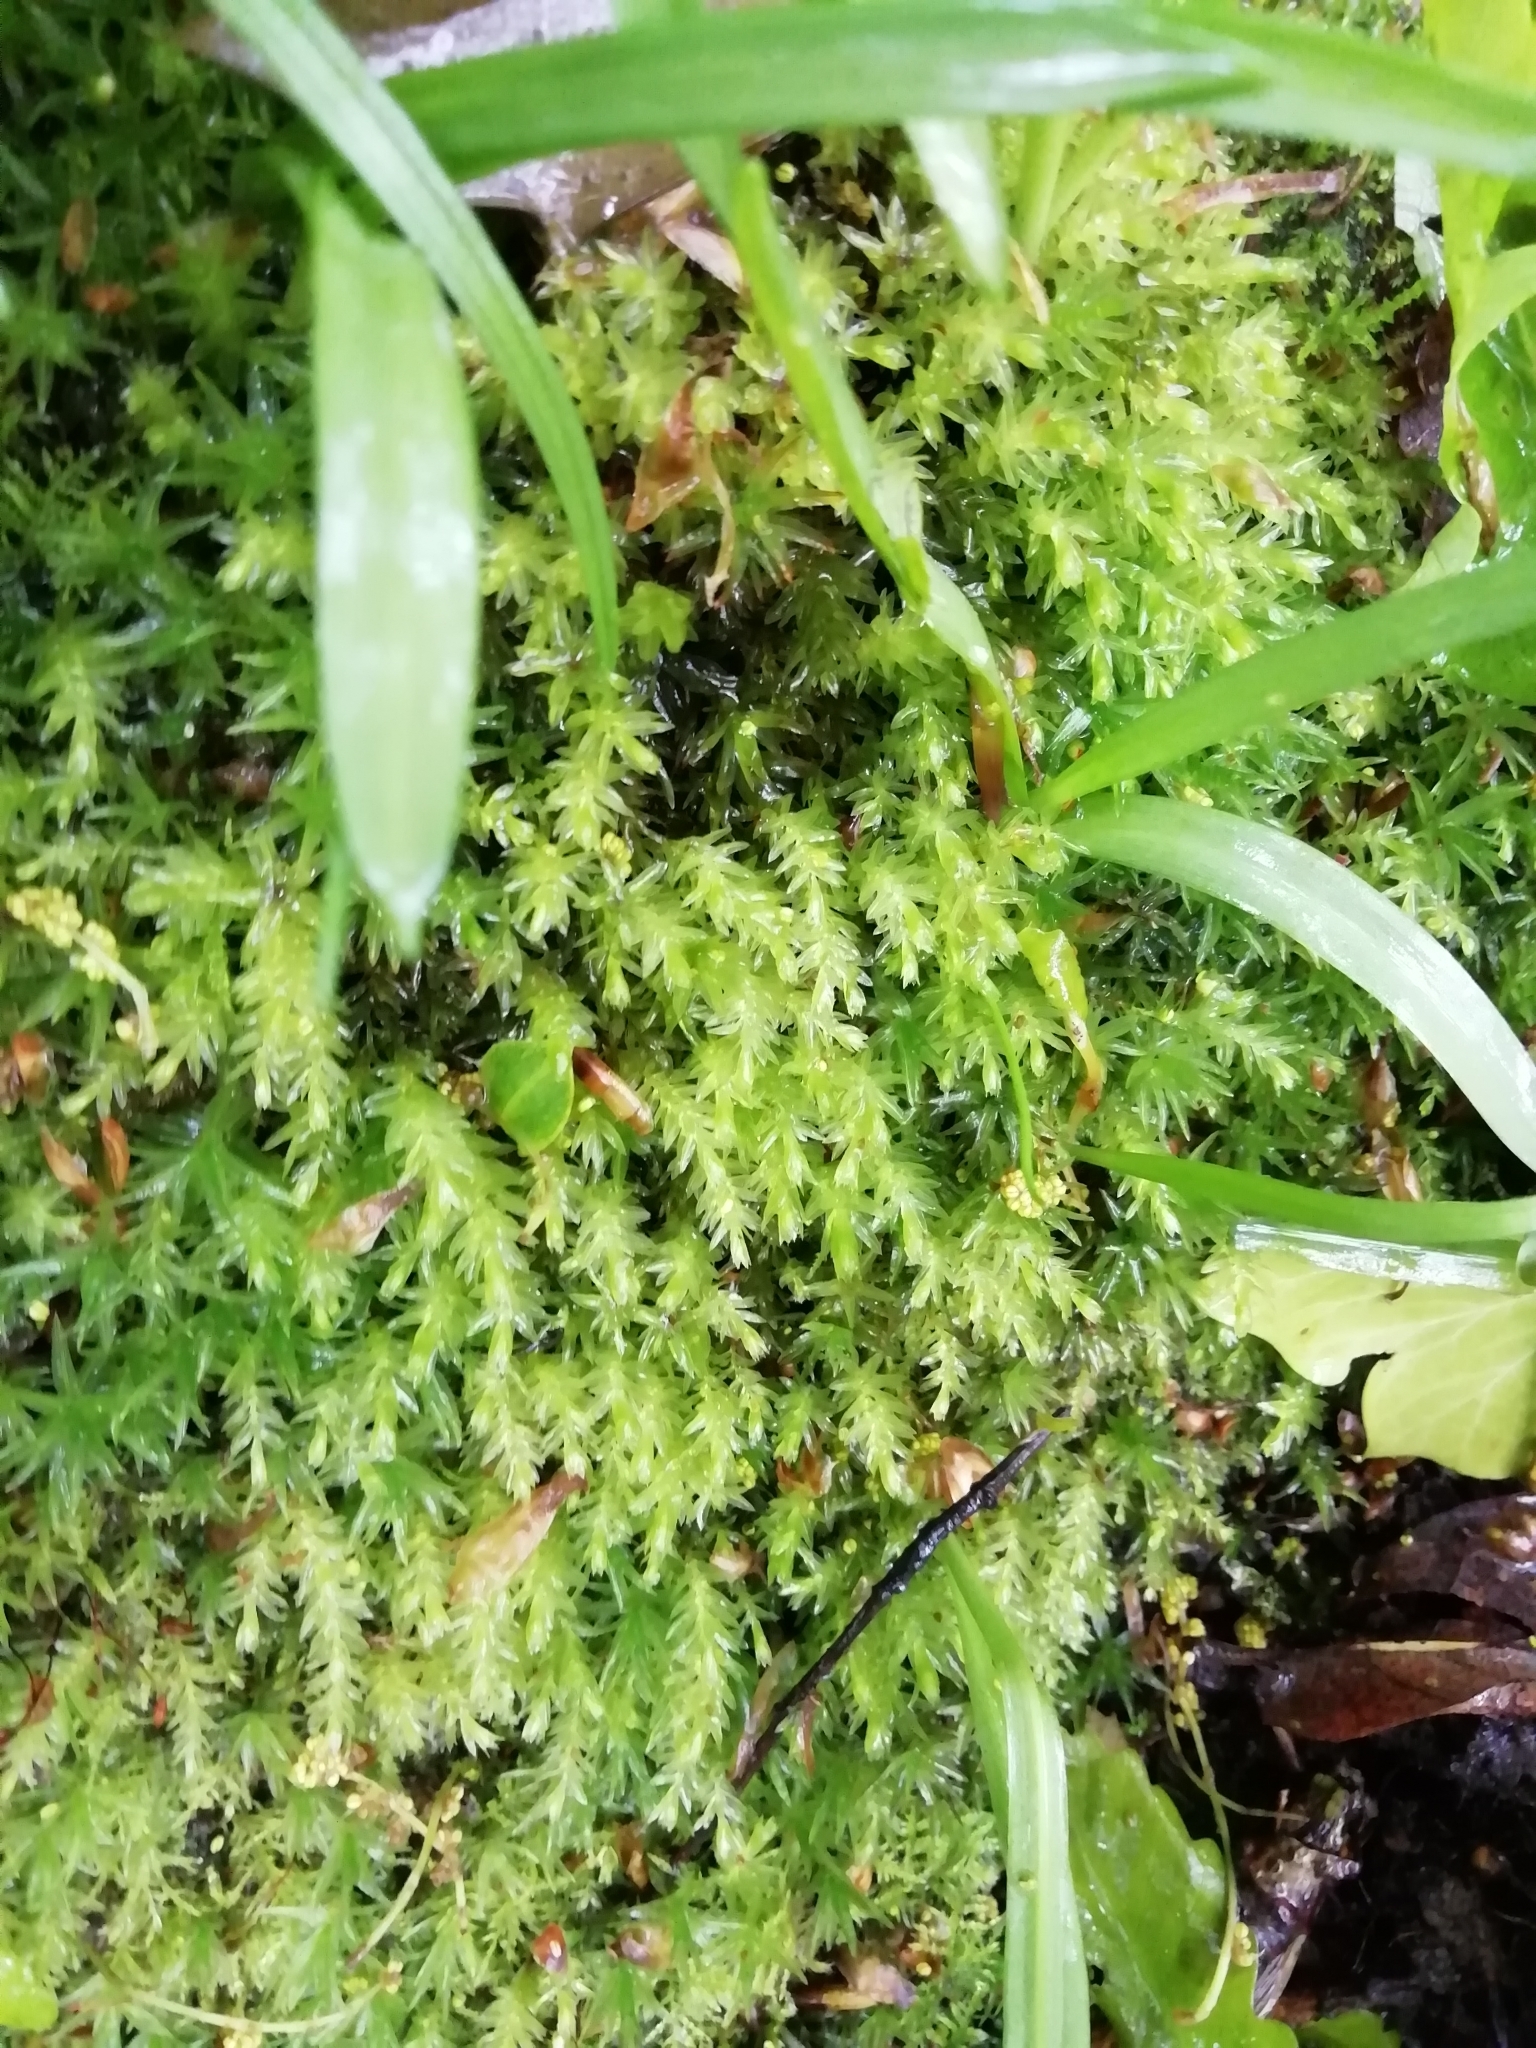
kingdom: Plantae
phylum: Bryophyta
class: Bryopsida
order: Bryales
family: Mniaceae
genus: Mnium
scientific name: Mnium hornum
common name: Swan's-neck leafy moss
